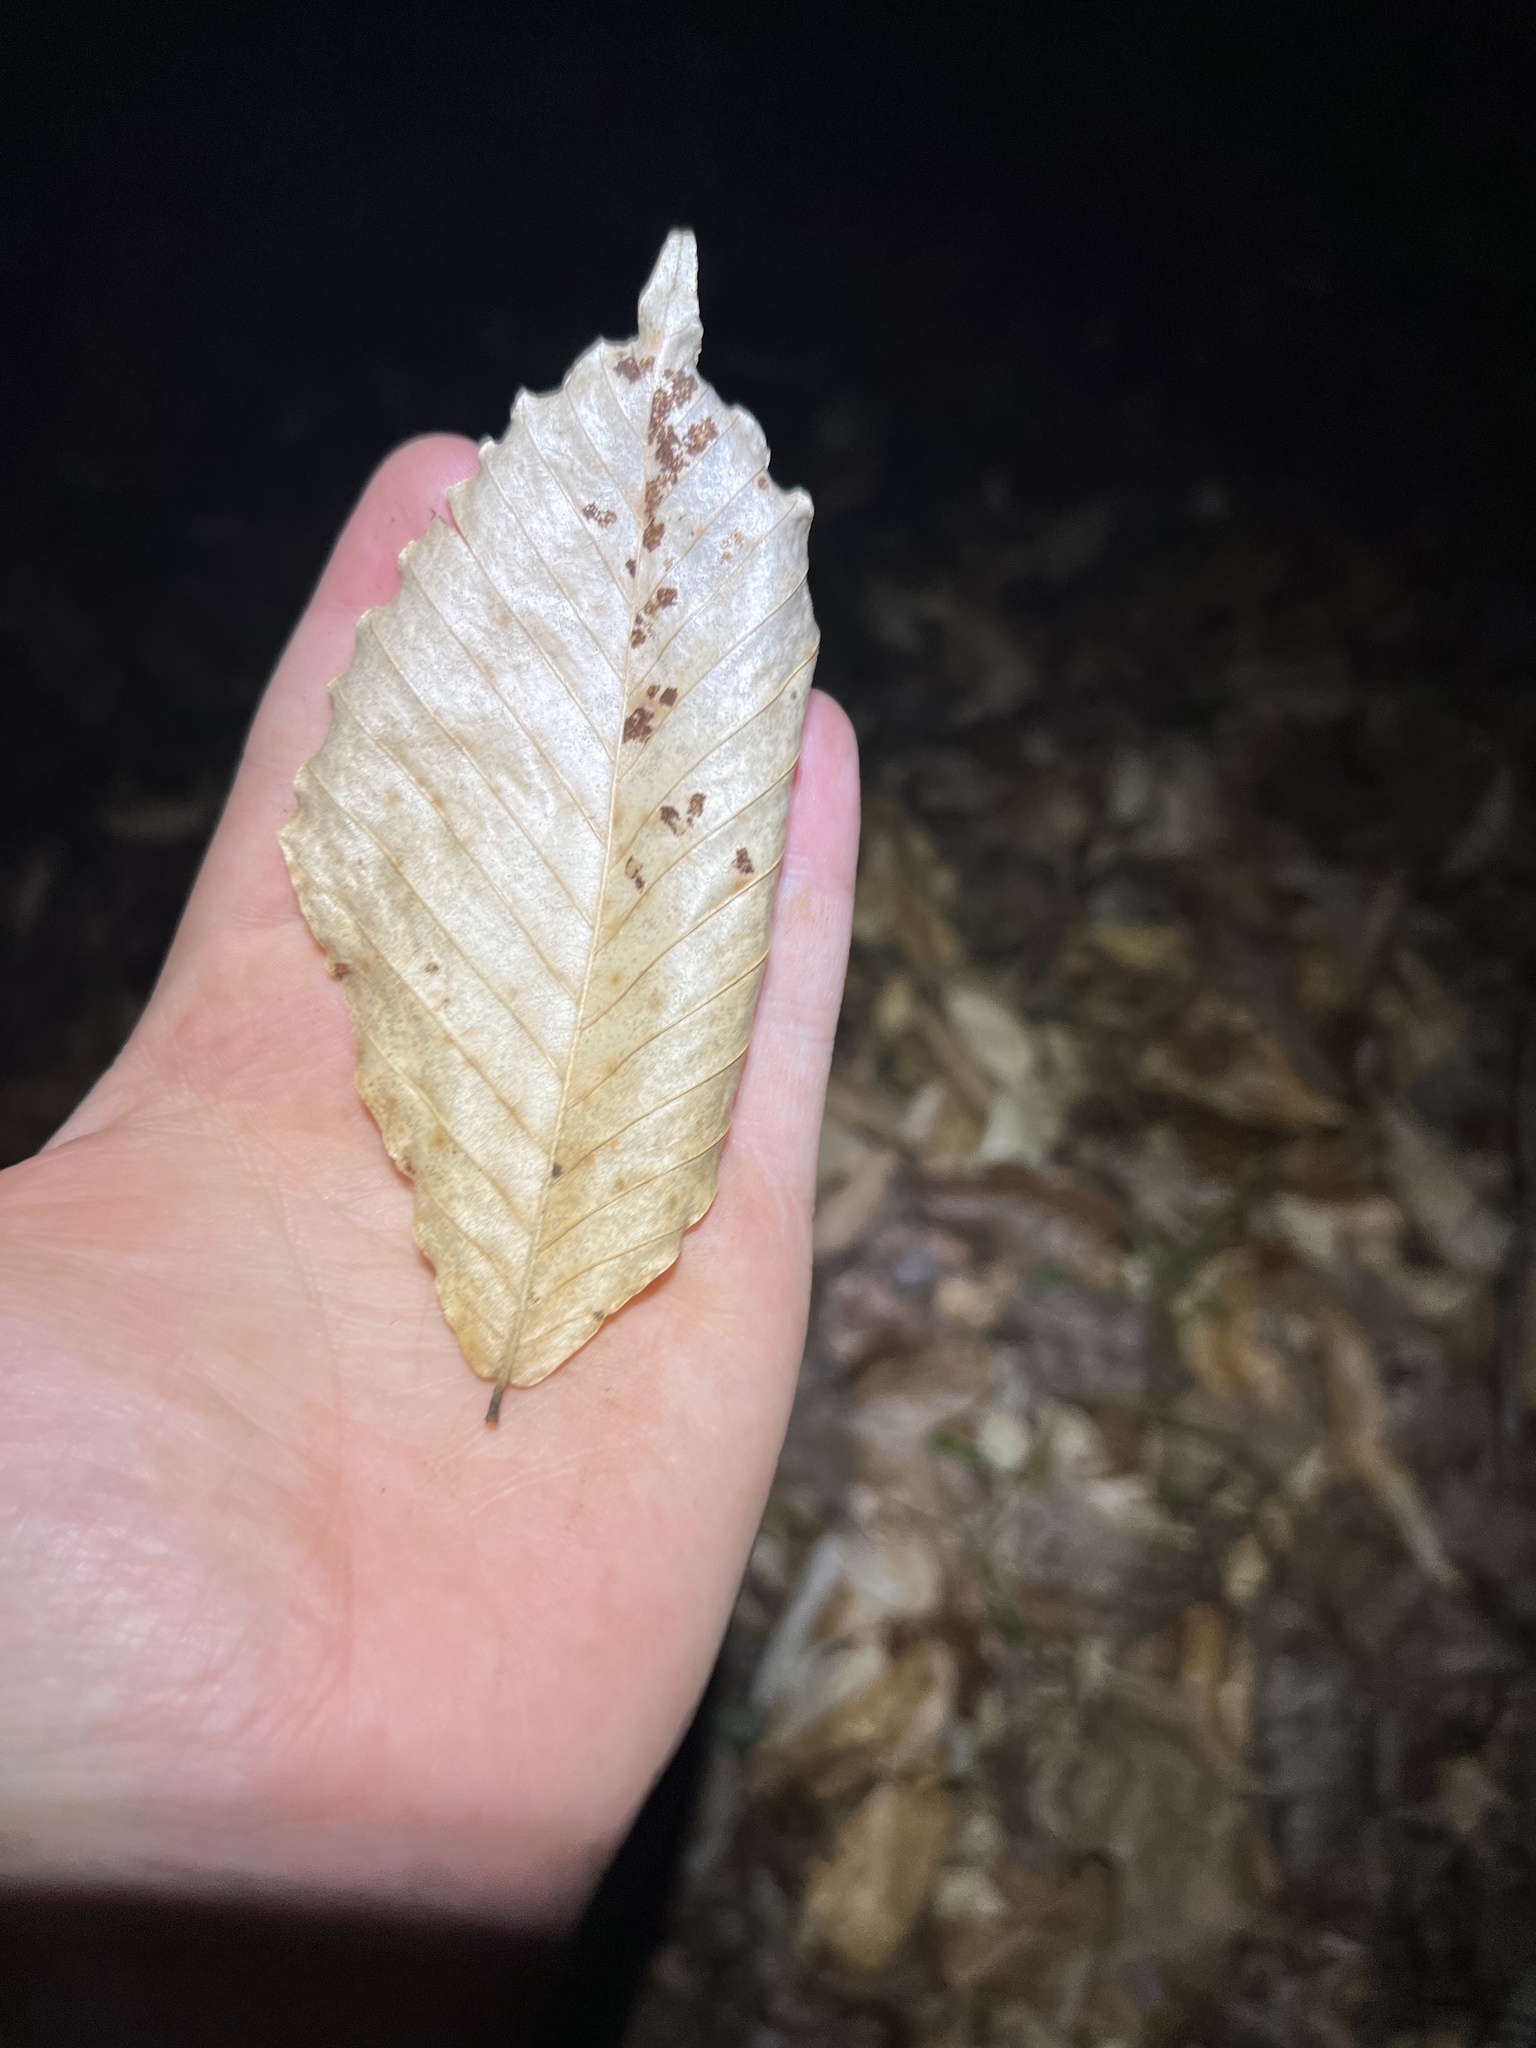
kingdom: Plantae
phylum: Tracheophyta
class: Magnoliopsida
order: Fagales
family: Fagaceae
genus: Fagus
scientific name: Fagus grandifolia
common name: American beech
